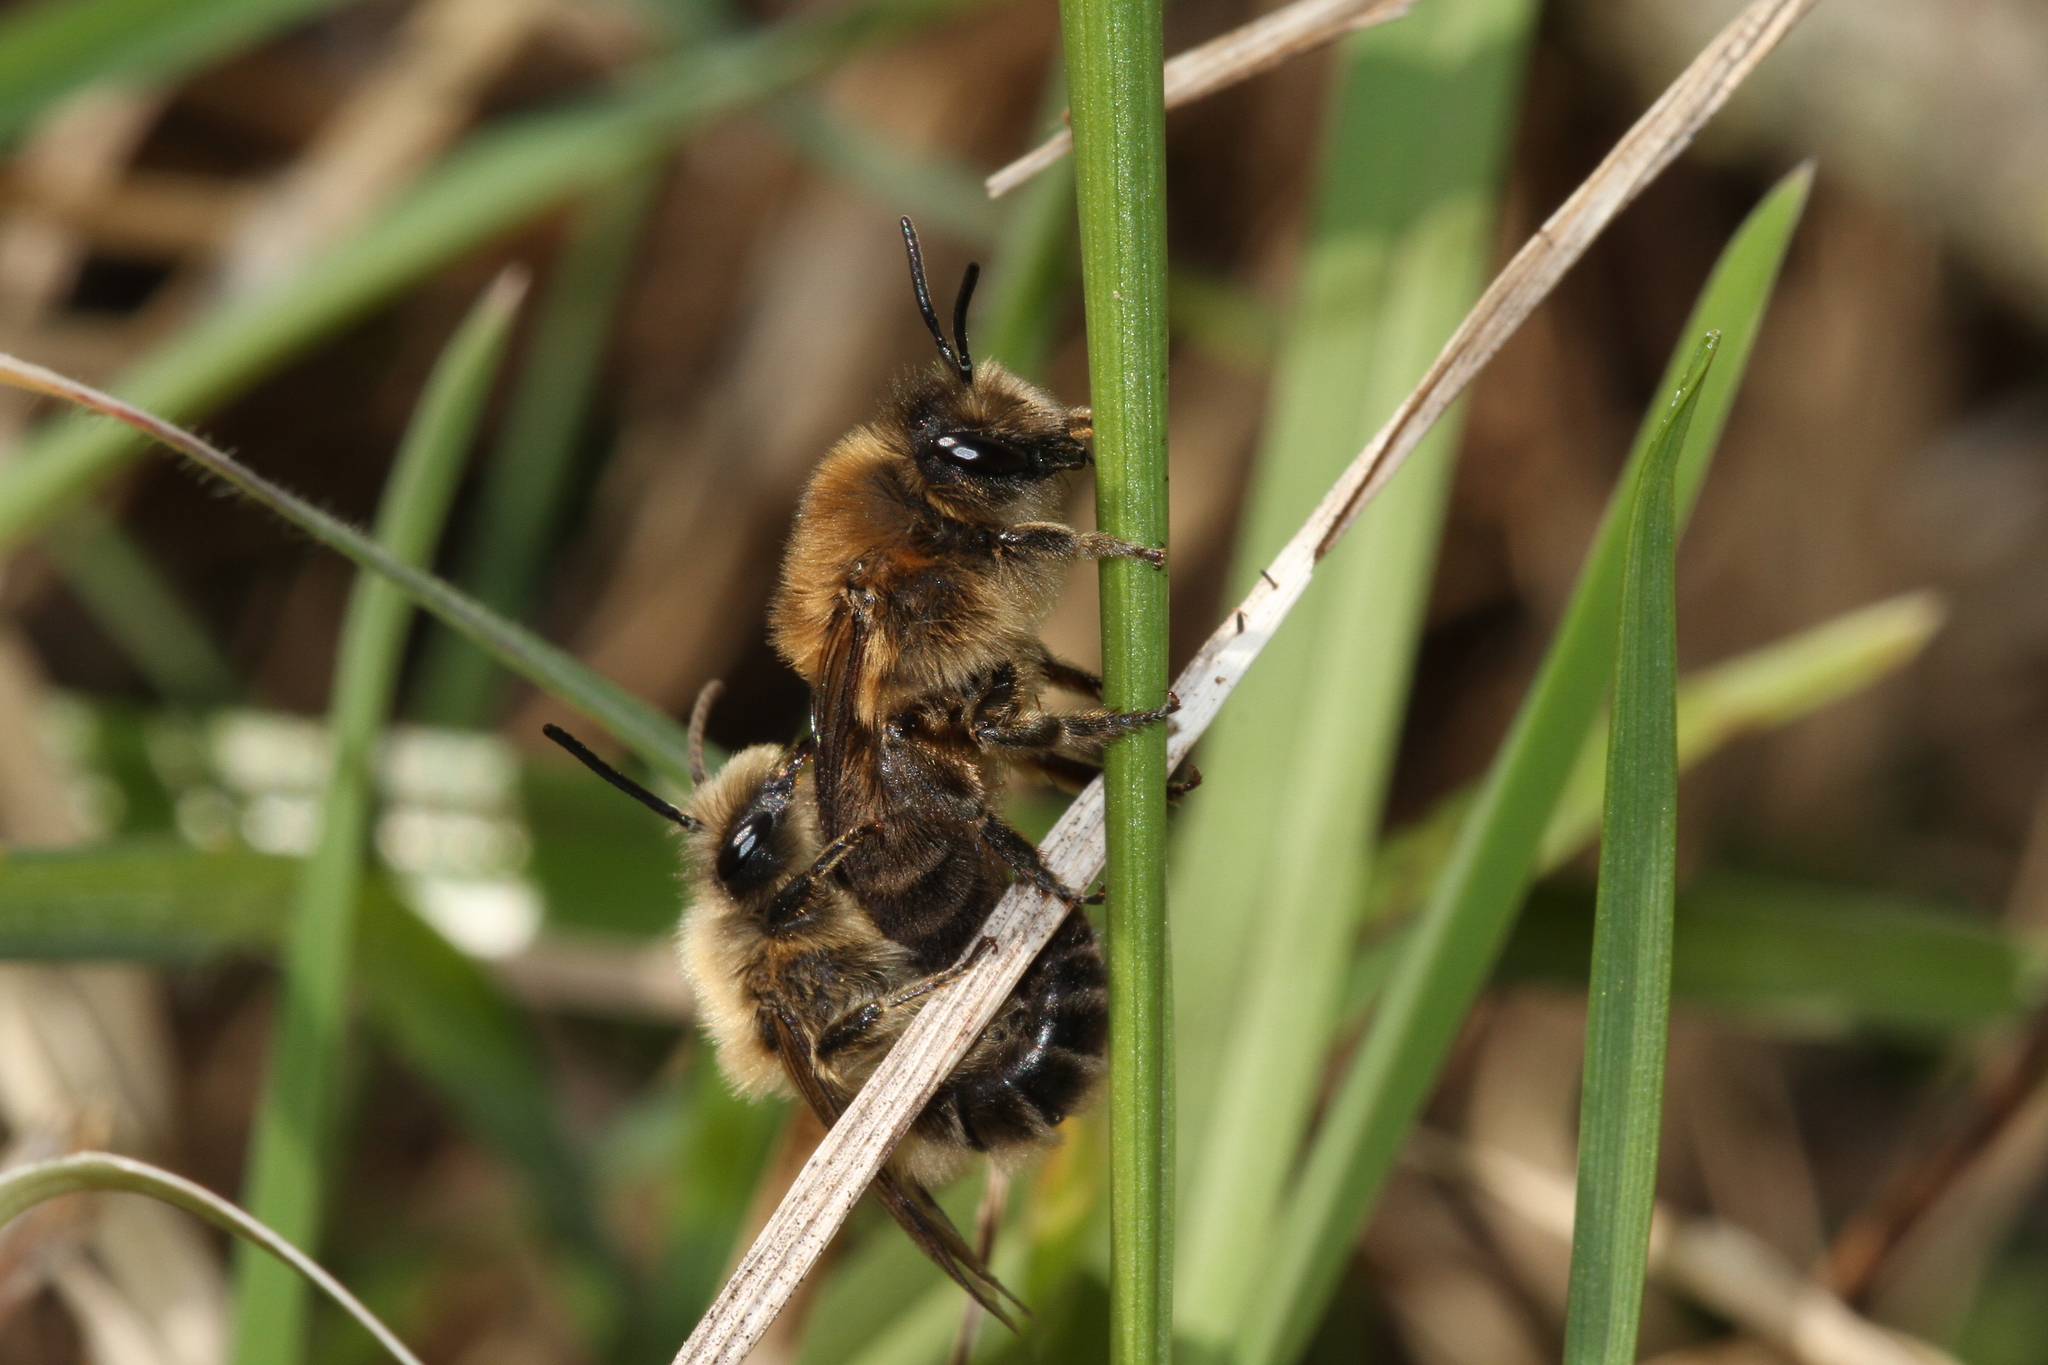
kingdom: Animalia
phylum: Arthropoda
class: Insecta
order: Hymenoptera
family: Colletidae
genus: Colletes
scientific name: Colletes cunicularius
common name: Early colletes
